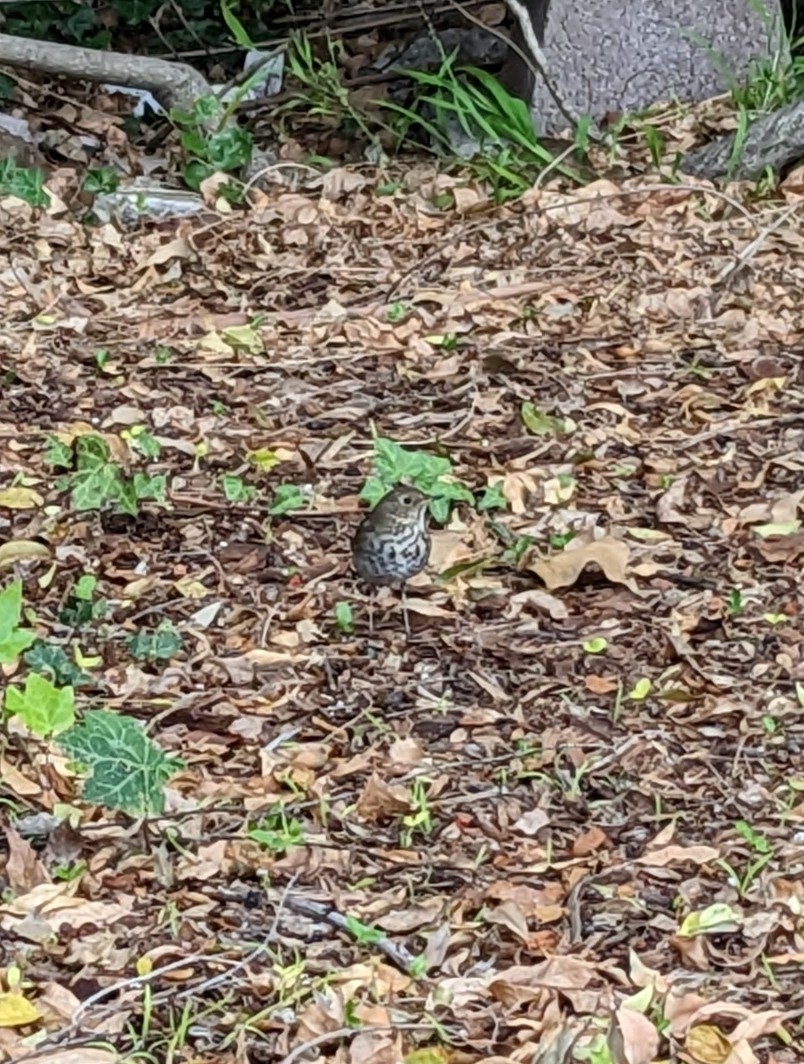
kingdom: Animalia
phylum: Chordata
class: Aves
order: Passeriformes
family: Turdidae
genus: Catharus
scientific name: Catharus guttatus
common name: Hermit thrush
